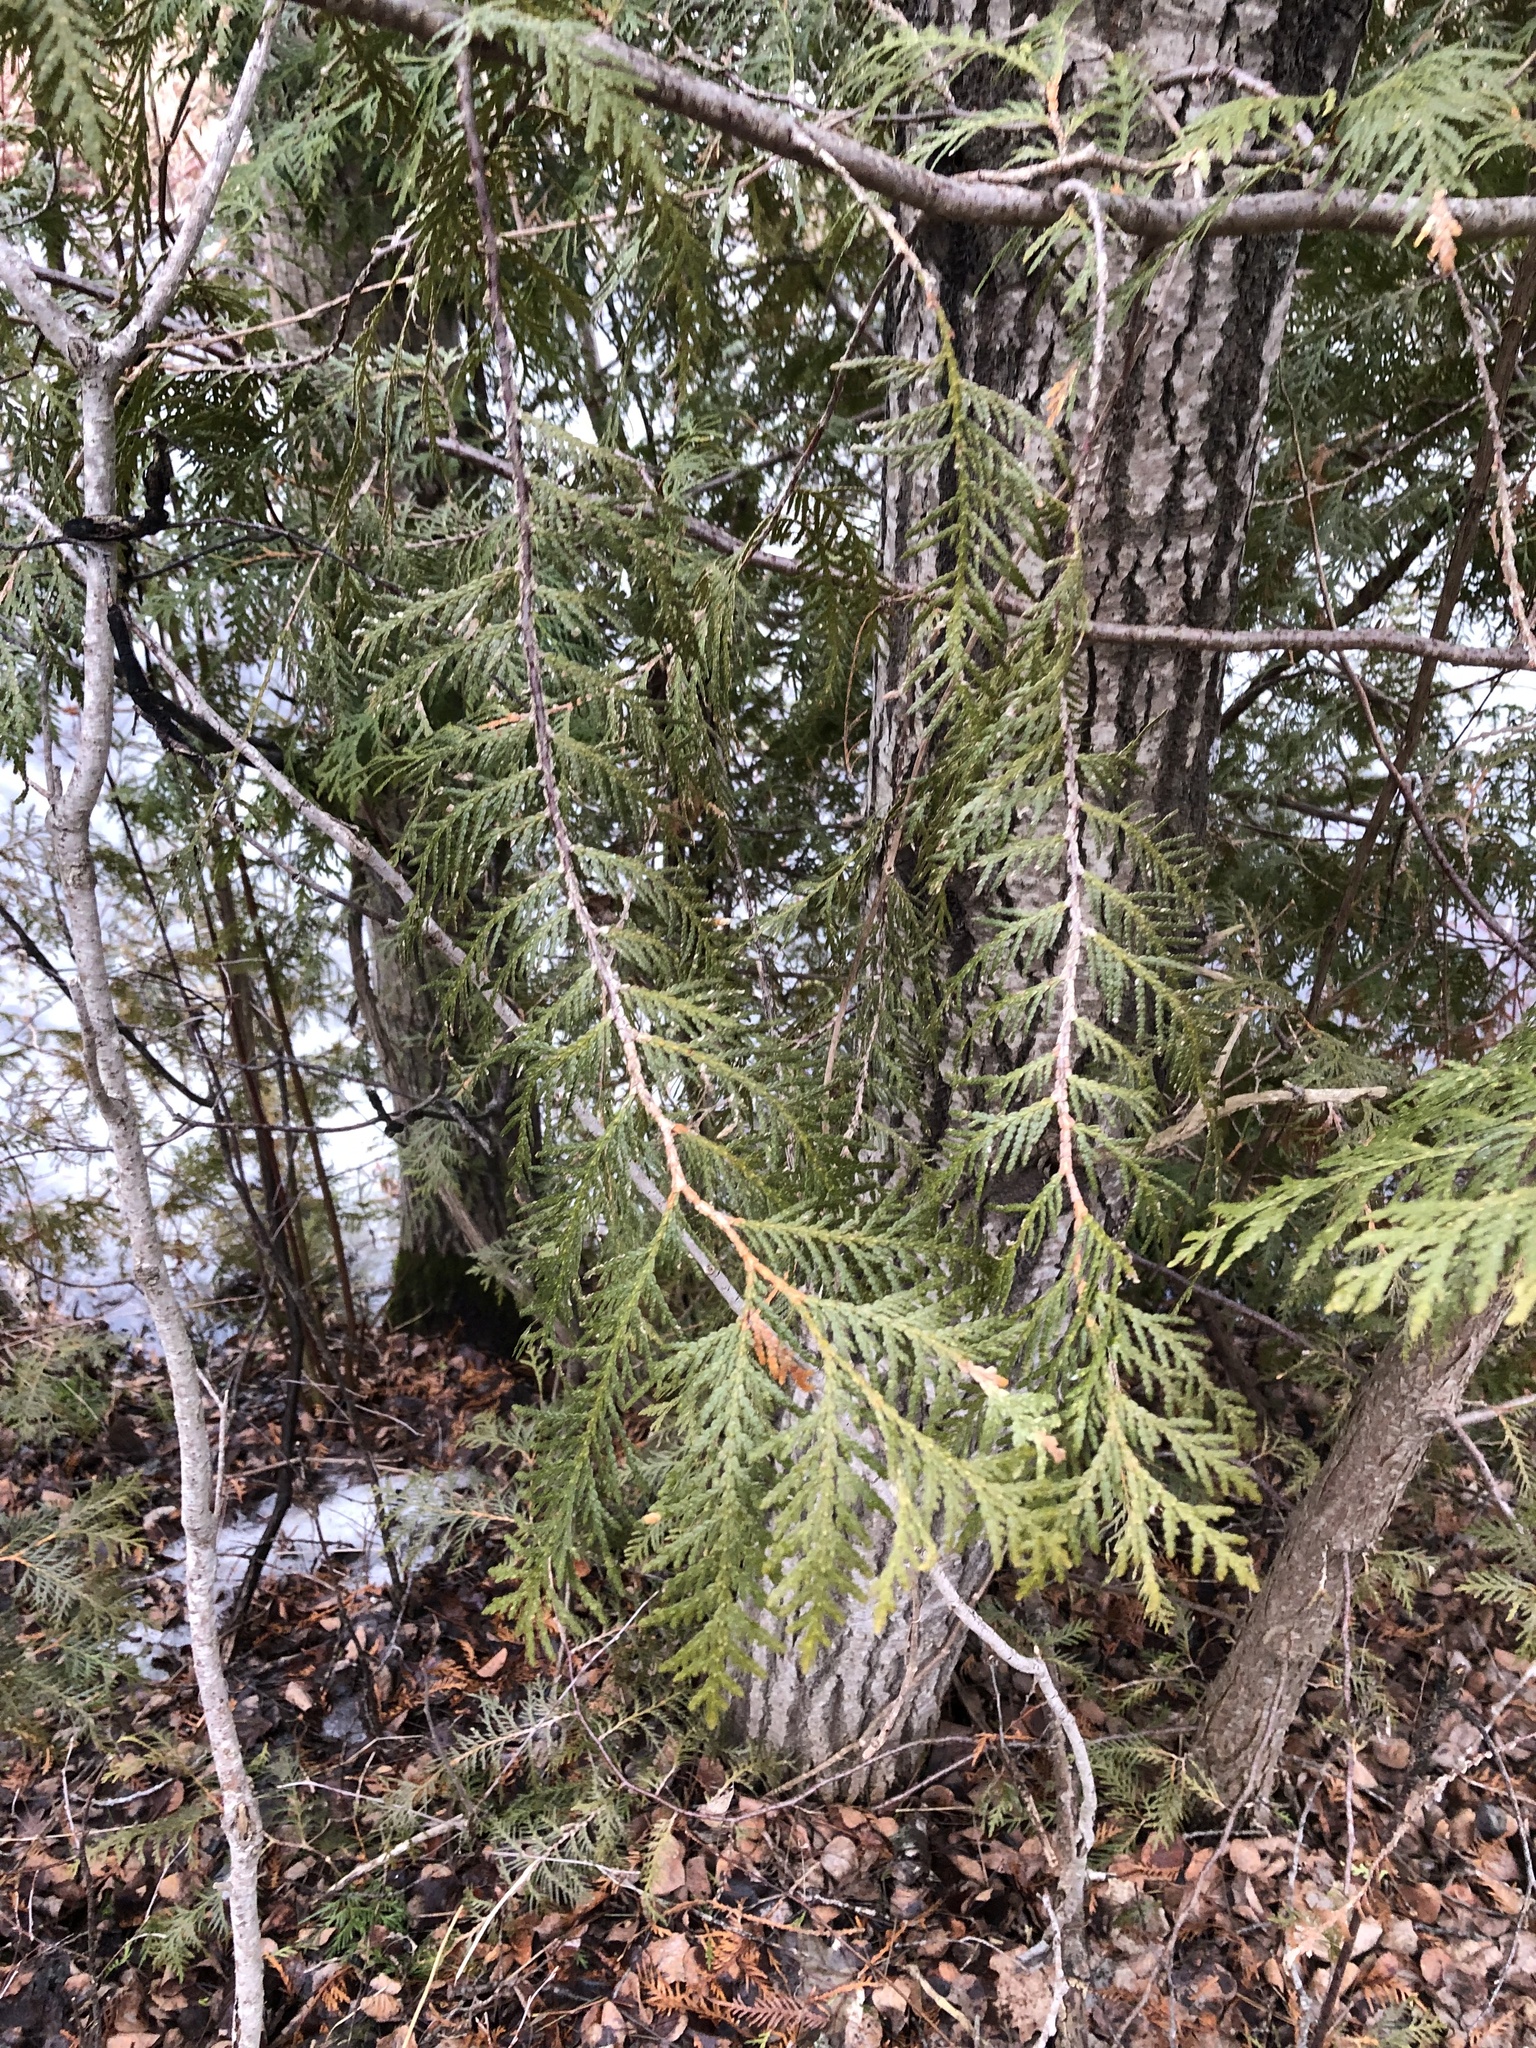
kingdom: Plantae
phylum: Tracheophyta
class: Pinopsida
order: Pinales
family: Cupressaceae
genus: Thuja
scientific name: Thuja occidentalis
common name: Northern white-cedar
